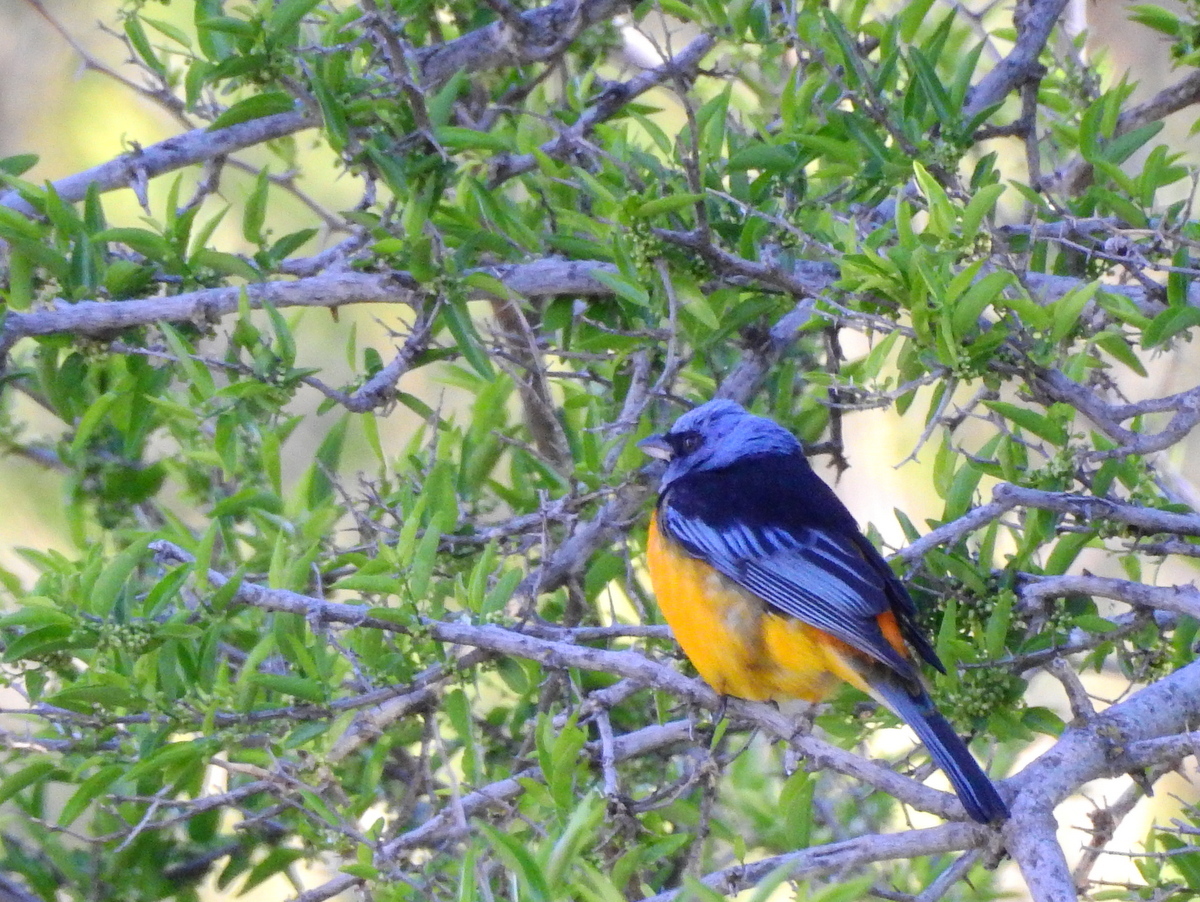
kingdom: Animalia
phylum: Chordata
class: Aves
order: Passeriformes
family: Thraupidae
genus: Rauenia
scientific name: Rauenia bonariensis
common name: Blue-and-yellow tanager
